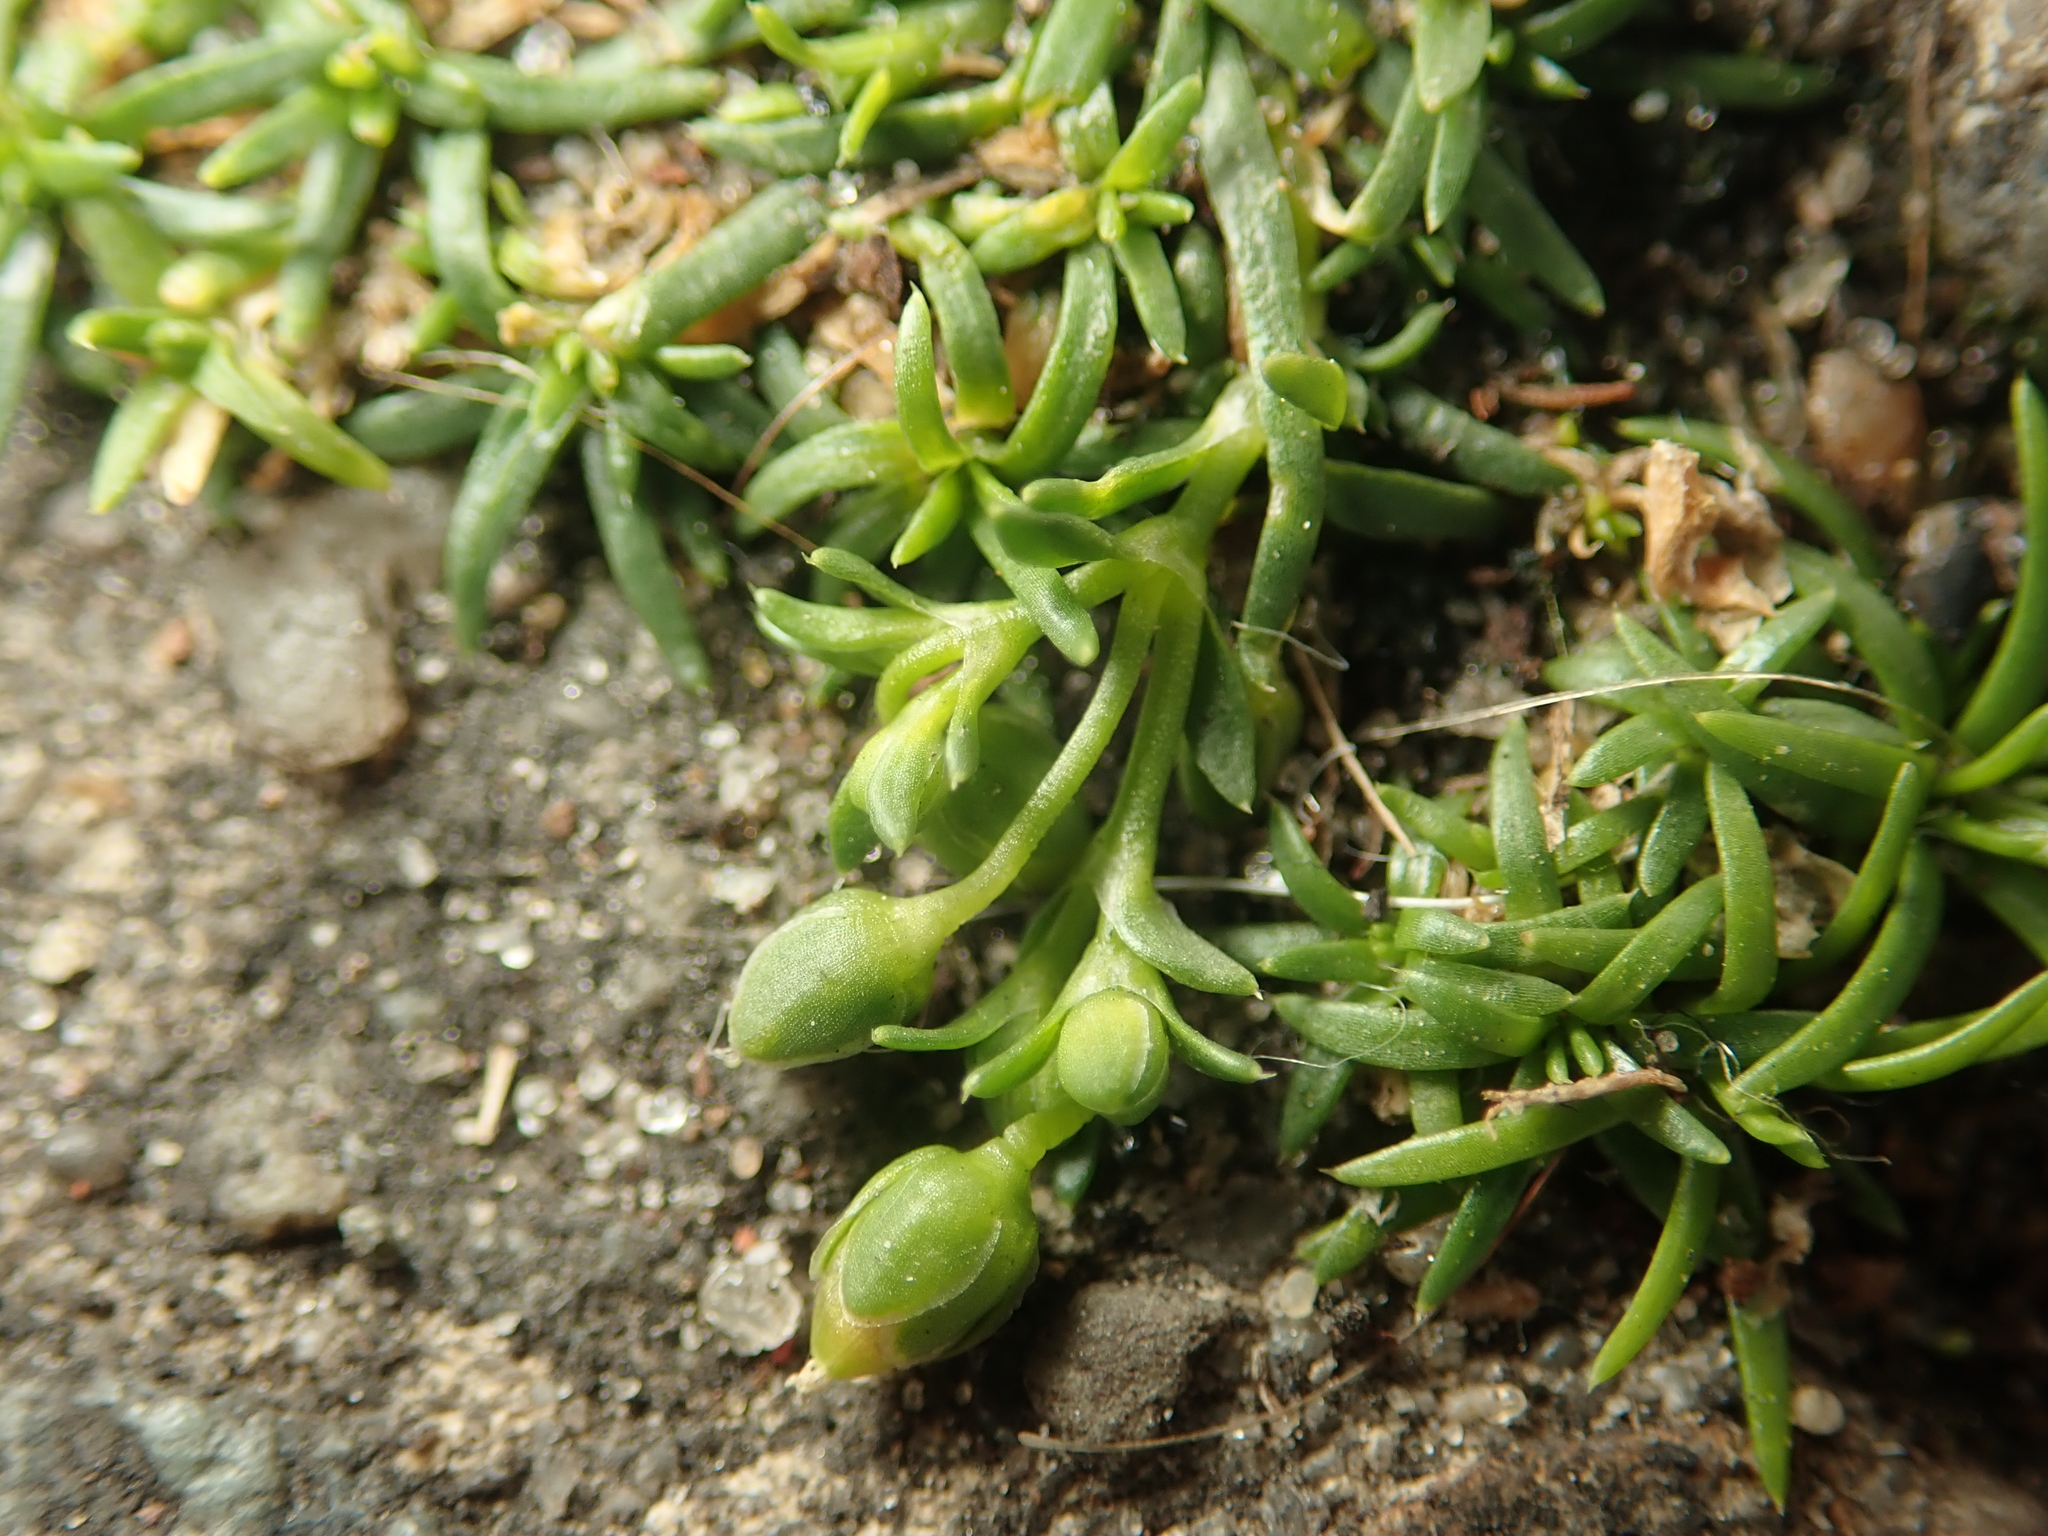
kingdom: Plantae
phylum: Tracheophyta
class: Magnoliopsida
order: Caryophyllales
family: Caryophyllaceae
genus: Sagina
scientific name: Sagina procumbens
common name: Procumbent pearlwort
